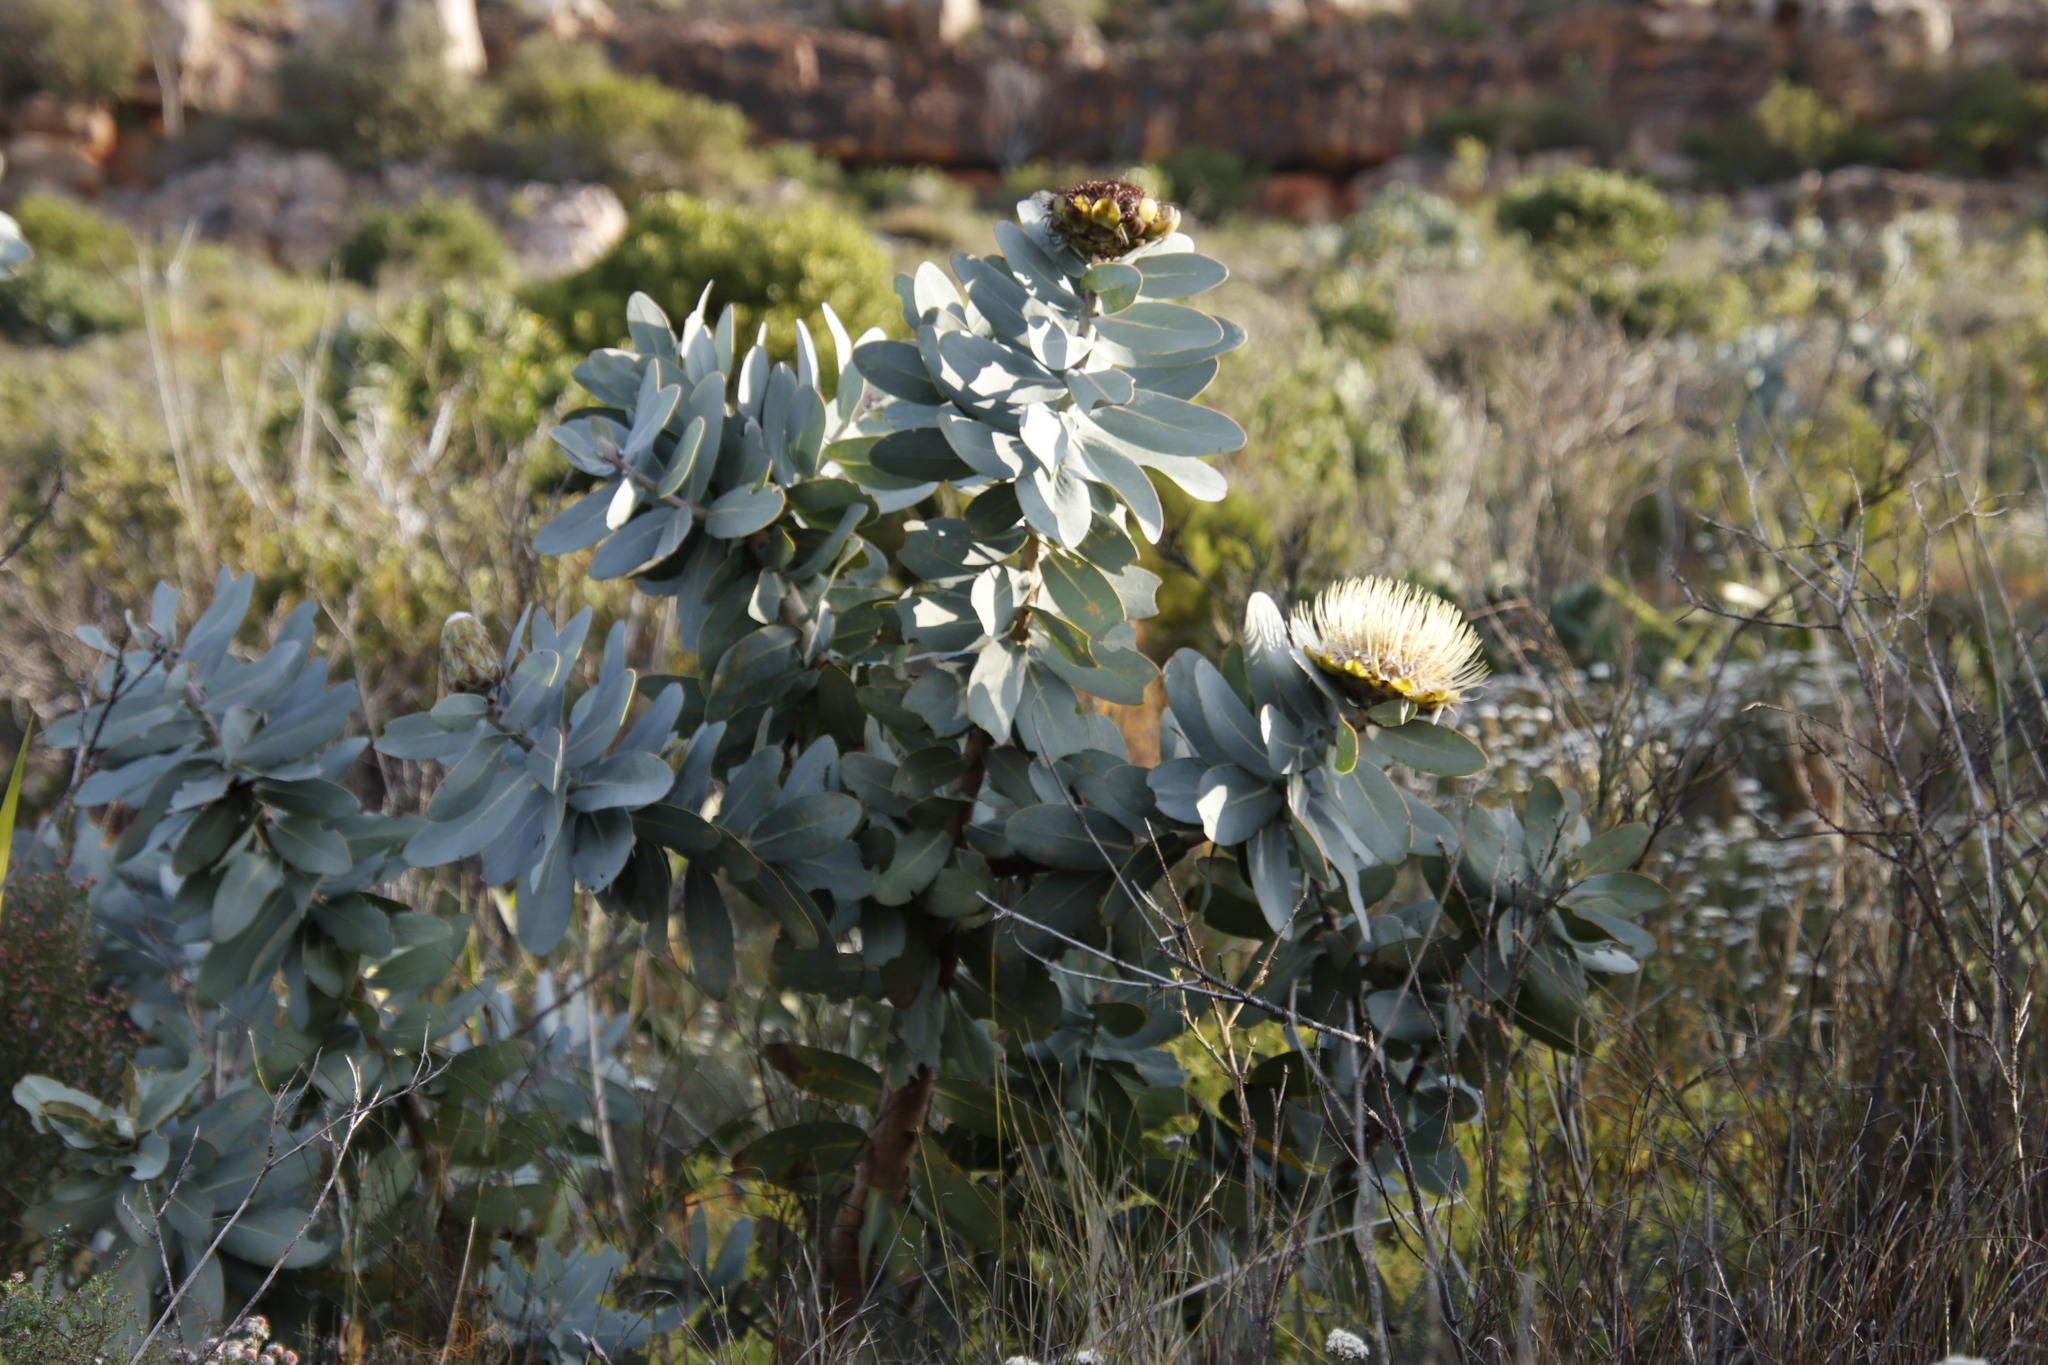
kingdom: Plantae
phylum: Tracheophyta
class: Magnoliopsida
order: Proteales
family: Proteaceae
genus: Protea
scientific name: Protea nitida
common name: Tree protea
